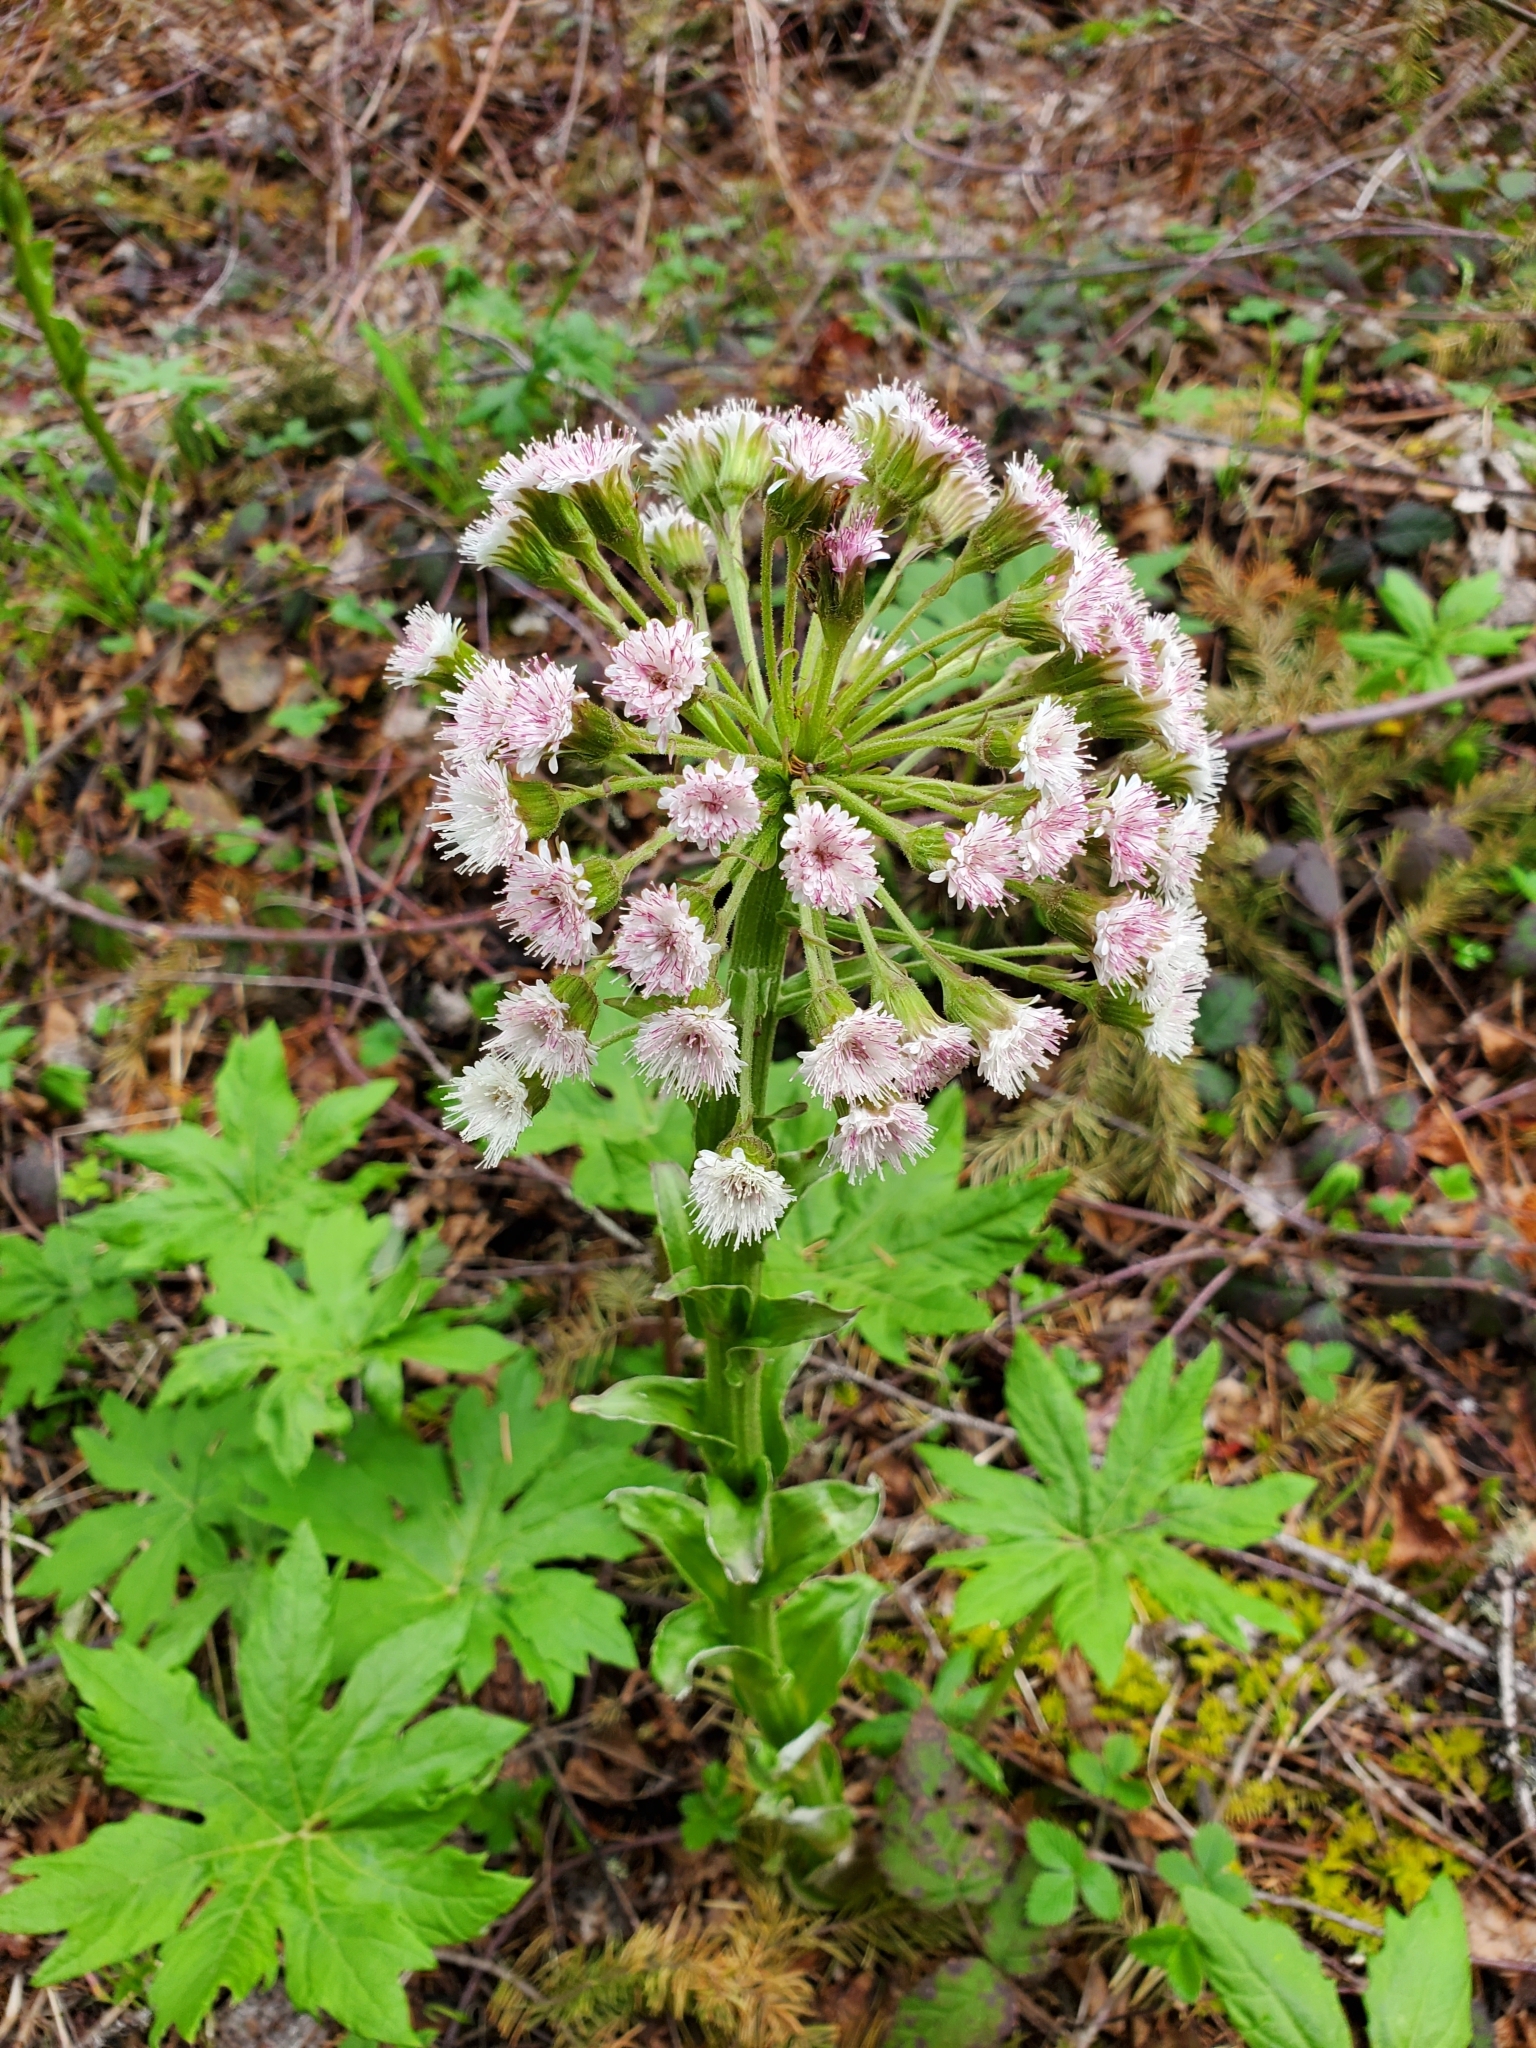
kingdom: Plantae
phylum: Tracheophyta
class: Magnoliopsida
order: Asterales
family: Asteraceae
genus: Petasites
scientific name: Petasites frigidus
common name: Arctic butterbur
